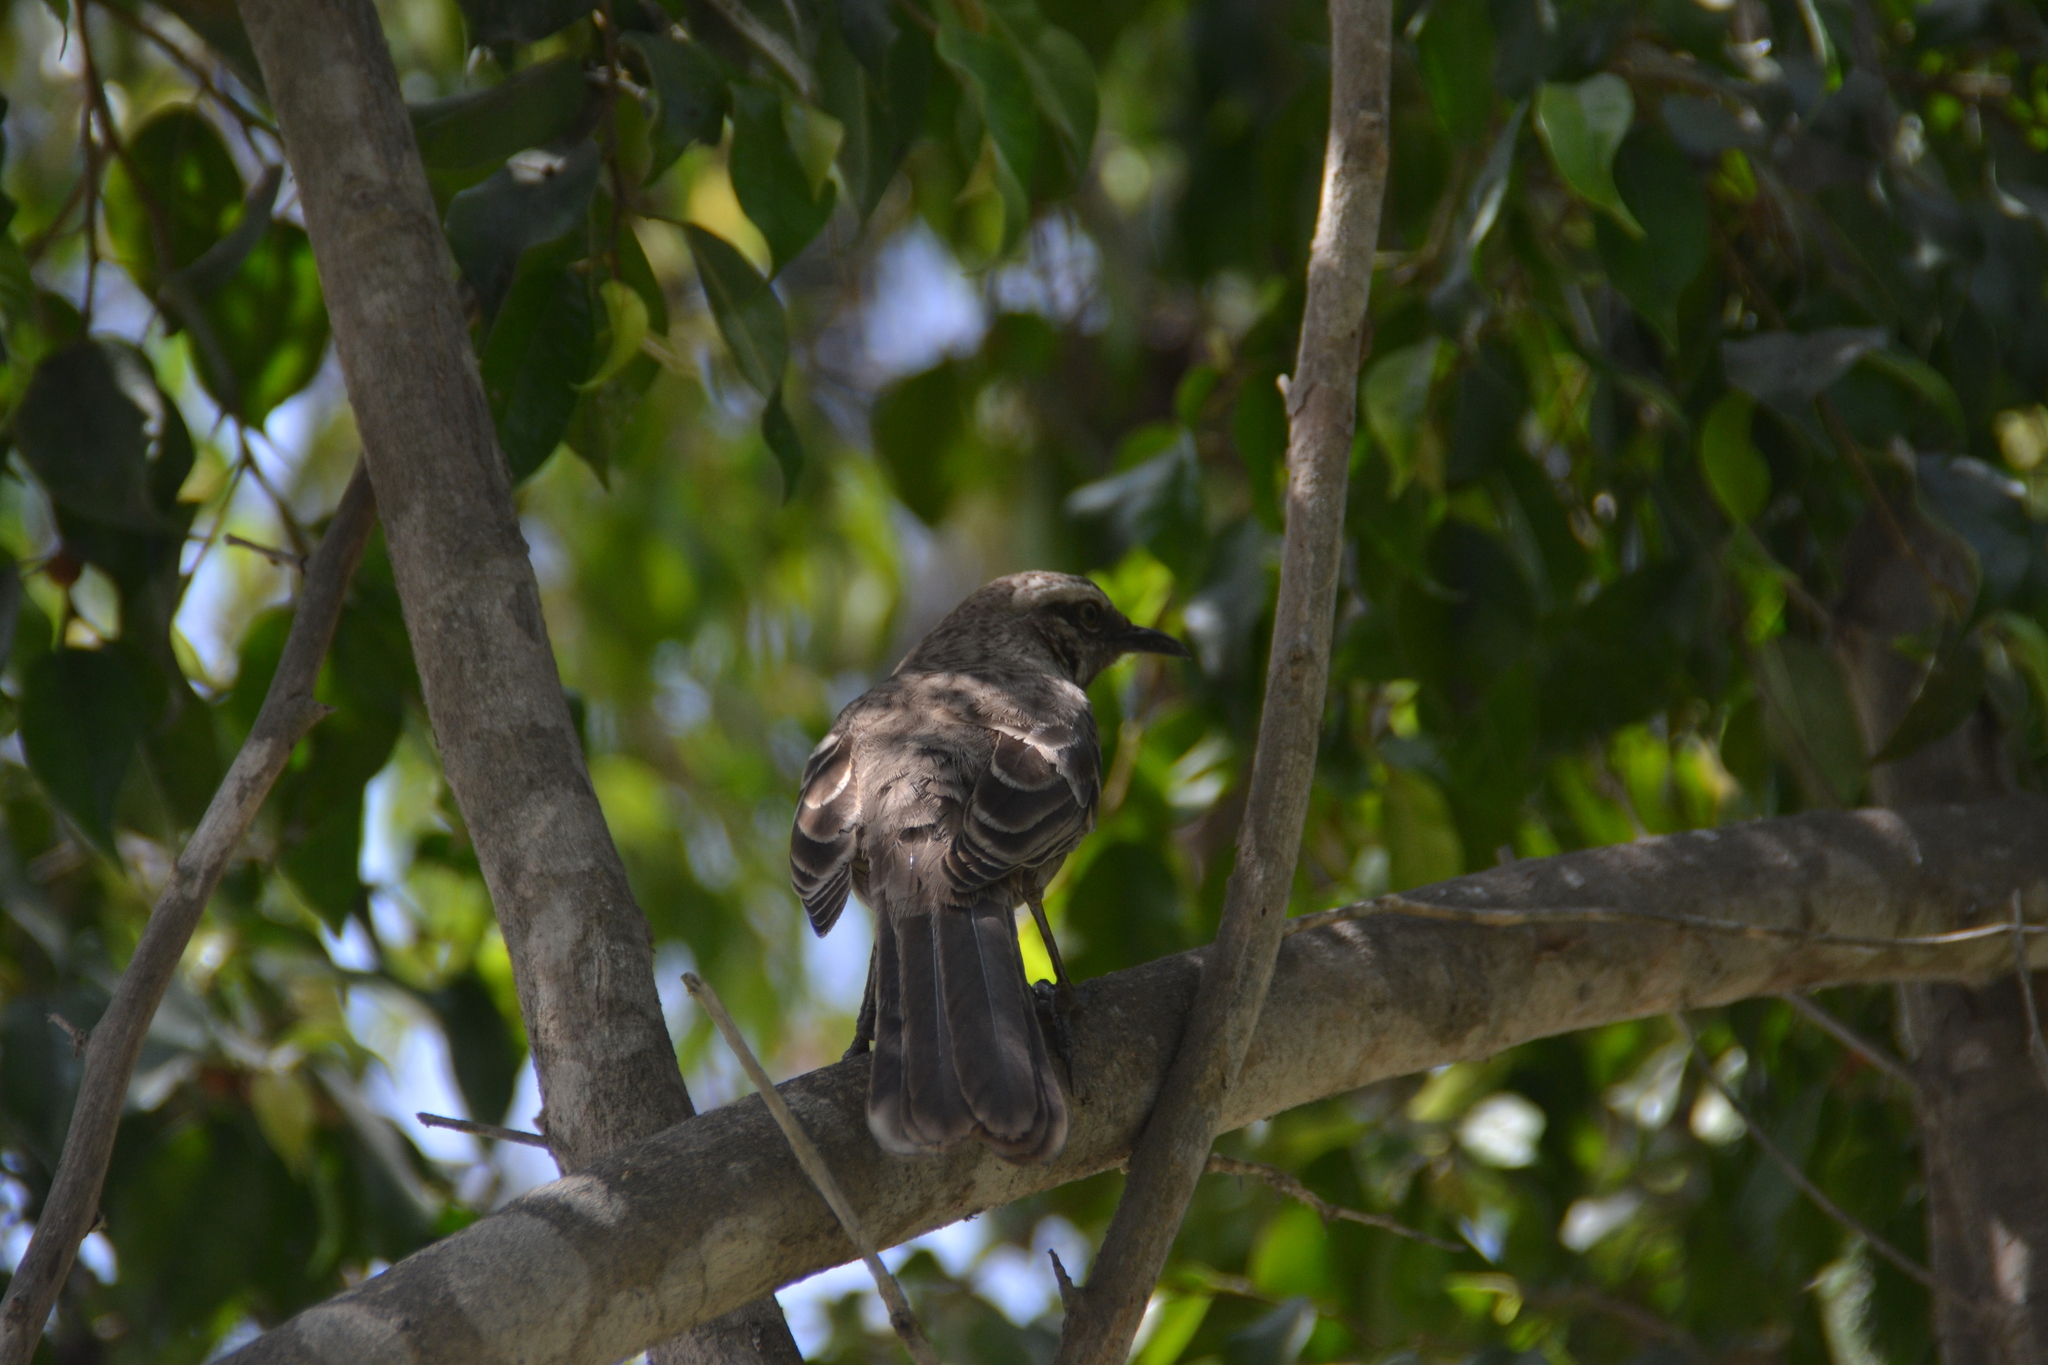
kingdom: Animalia
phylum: Chordata
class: Aves
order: Passeriformes
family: Mimidae
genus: Mimus
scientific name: Mimus longicaudatus
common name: Long-tailed mockingbird
